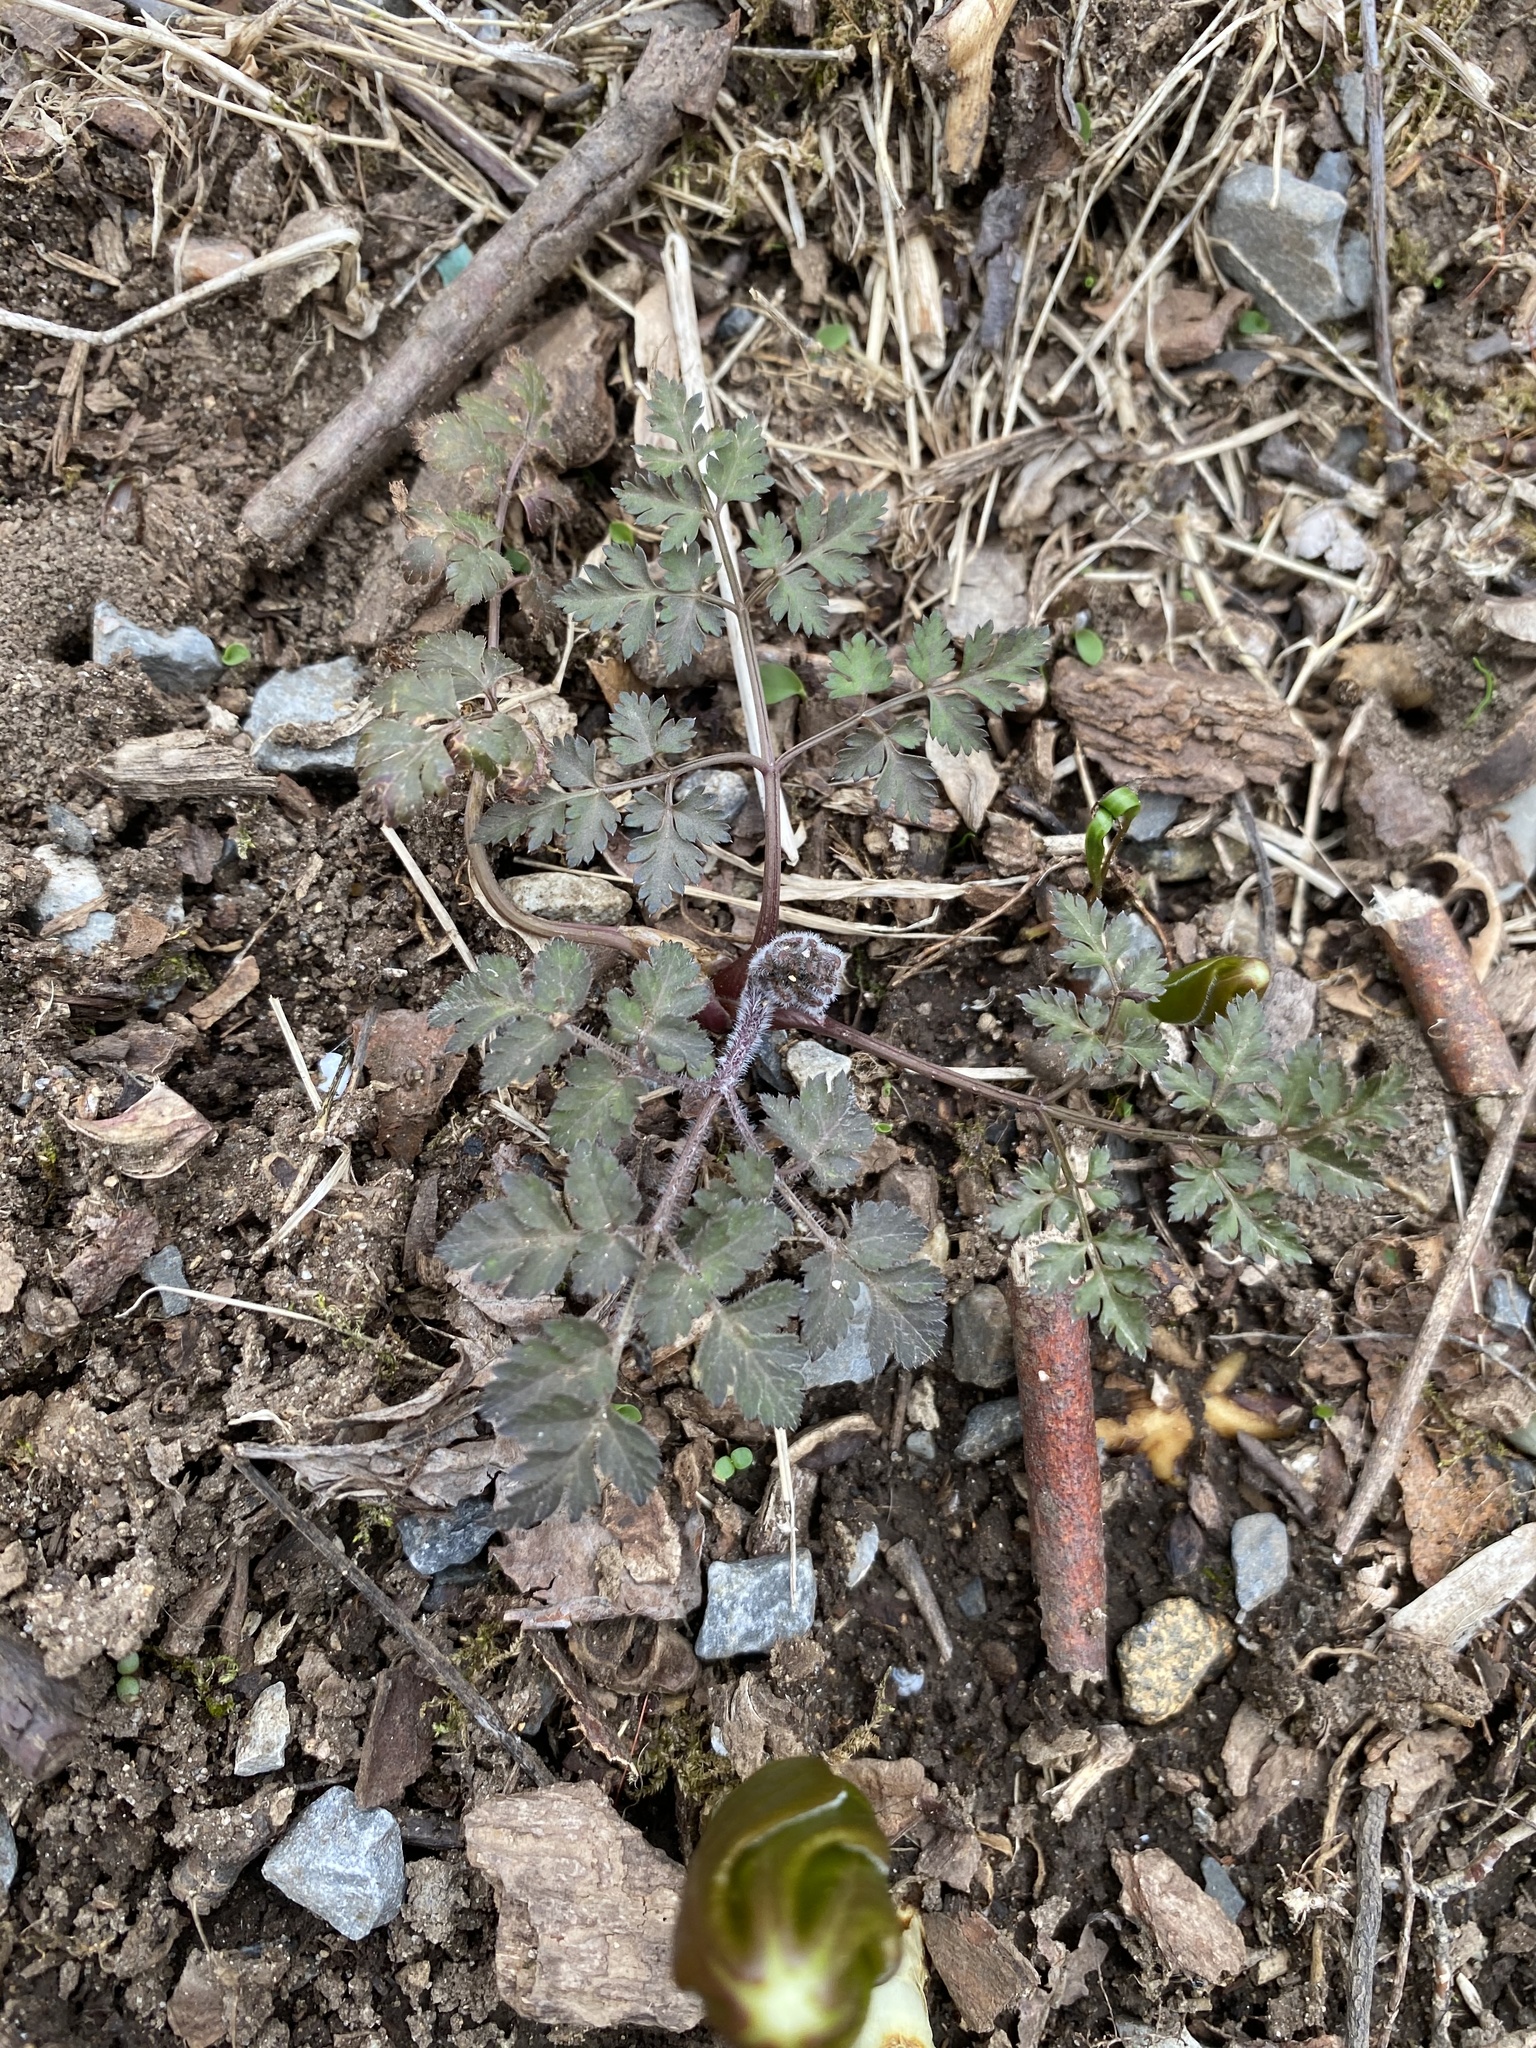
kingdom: Plantae
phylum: Tracheophyta
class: Magnoliopsida
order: Apiales
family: Apiaceae
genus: Osmorhiza
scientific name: Osmorhiza claytonii
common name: Hairy sweet cicely
